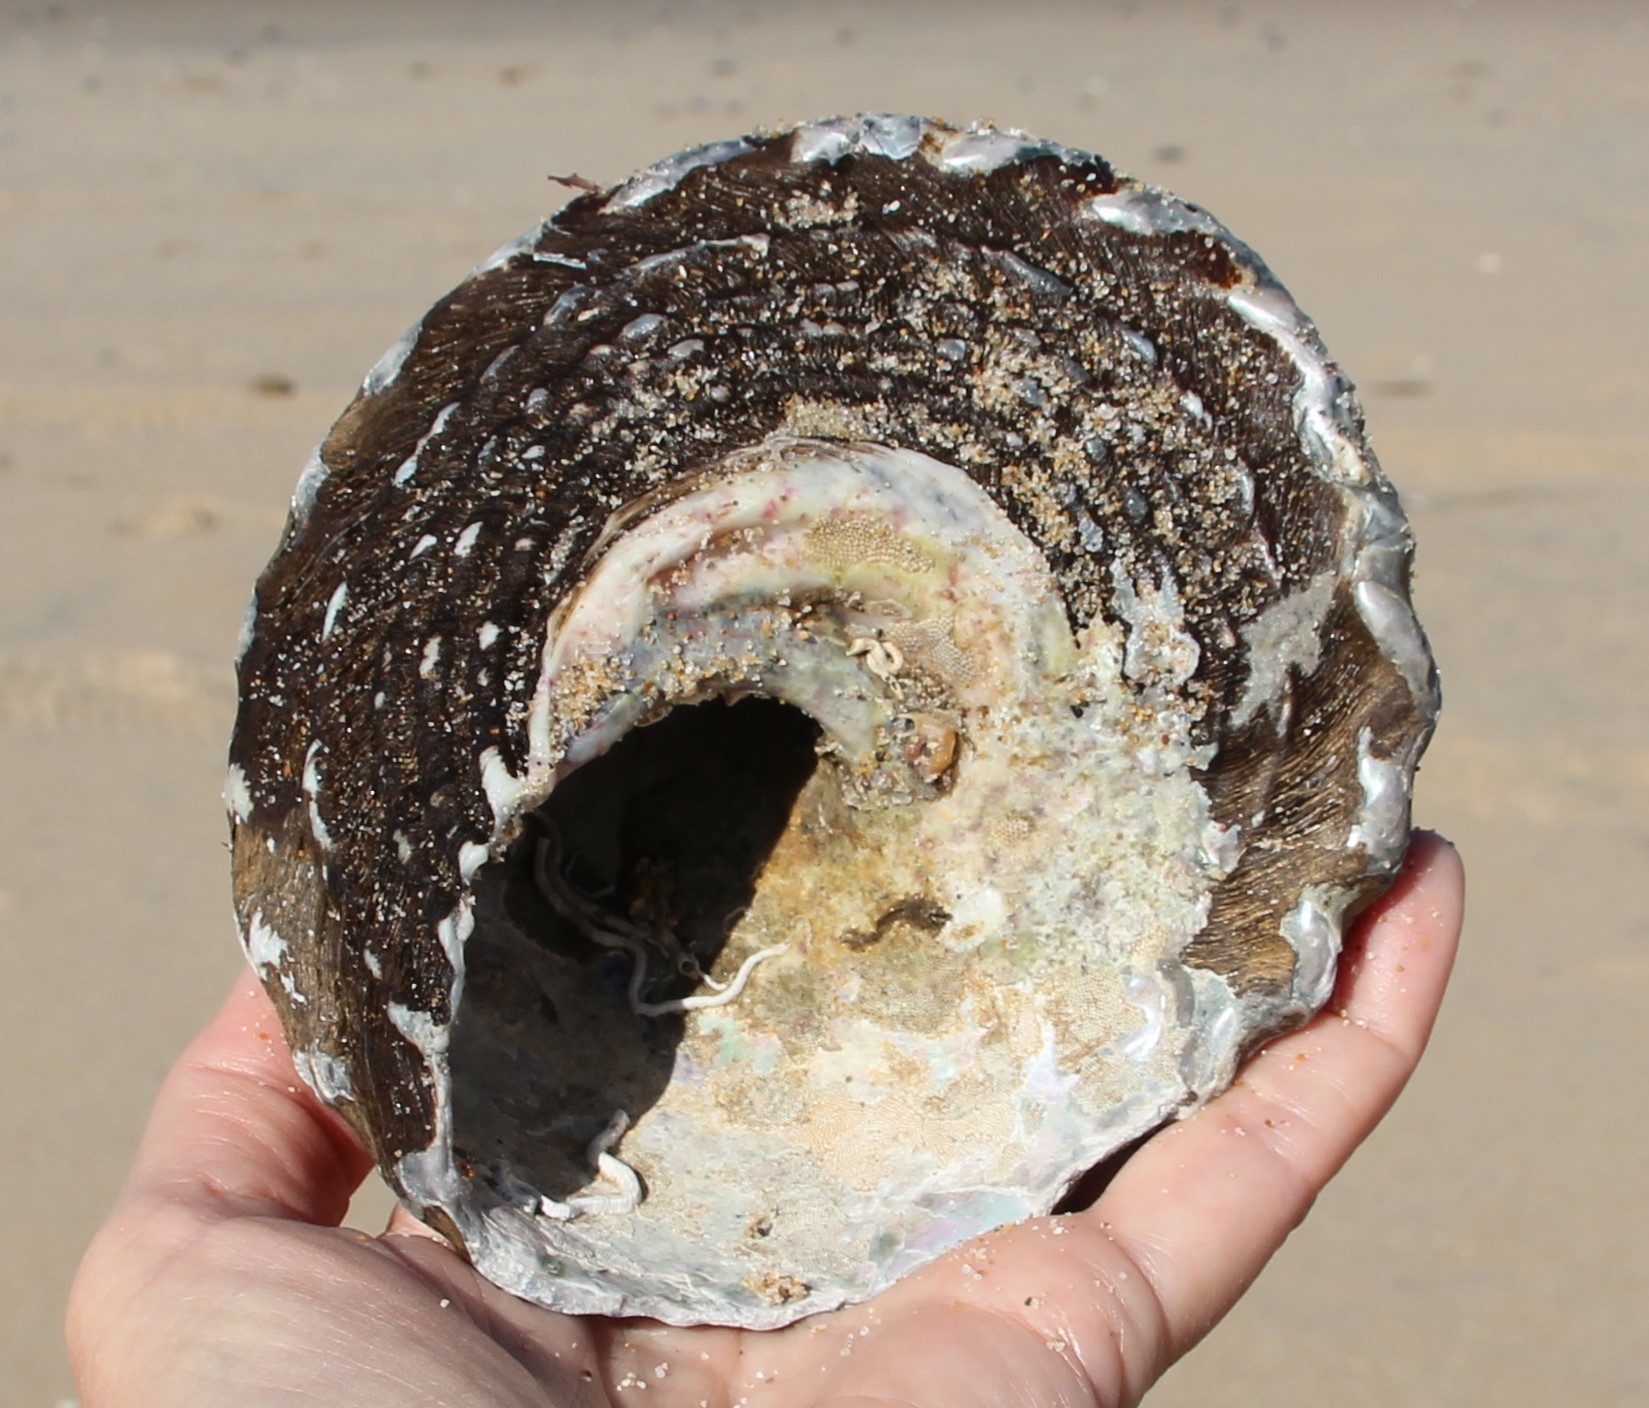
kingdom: Animalia
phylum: Mollusca
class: Gastropoda
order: Trochida
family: Turbinidae
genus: Megastraea
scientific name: Megastraea undosa
